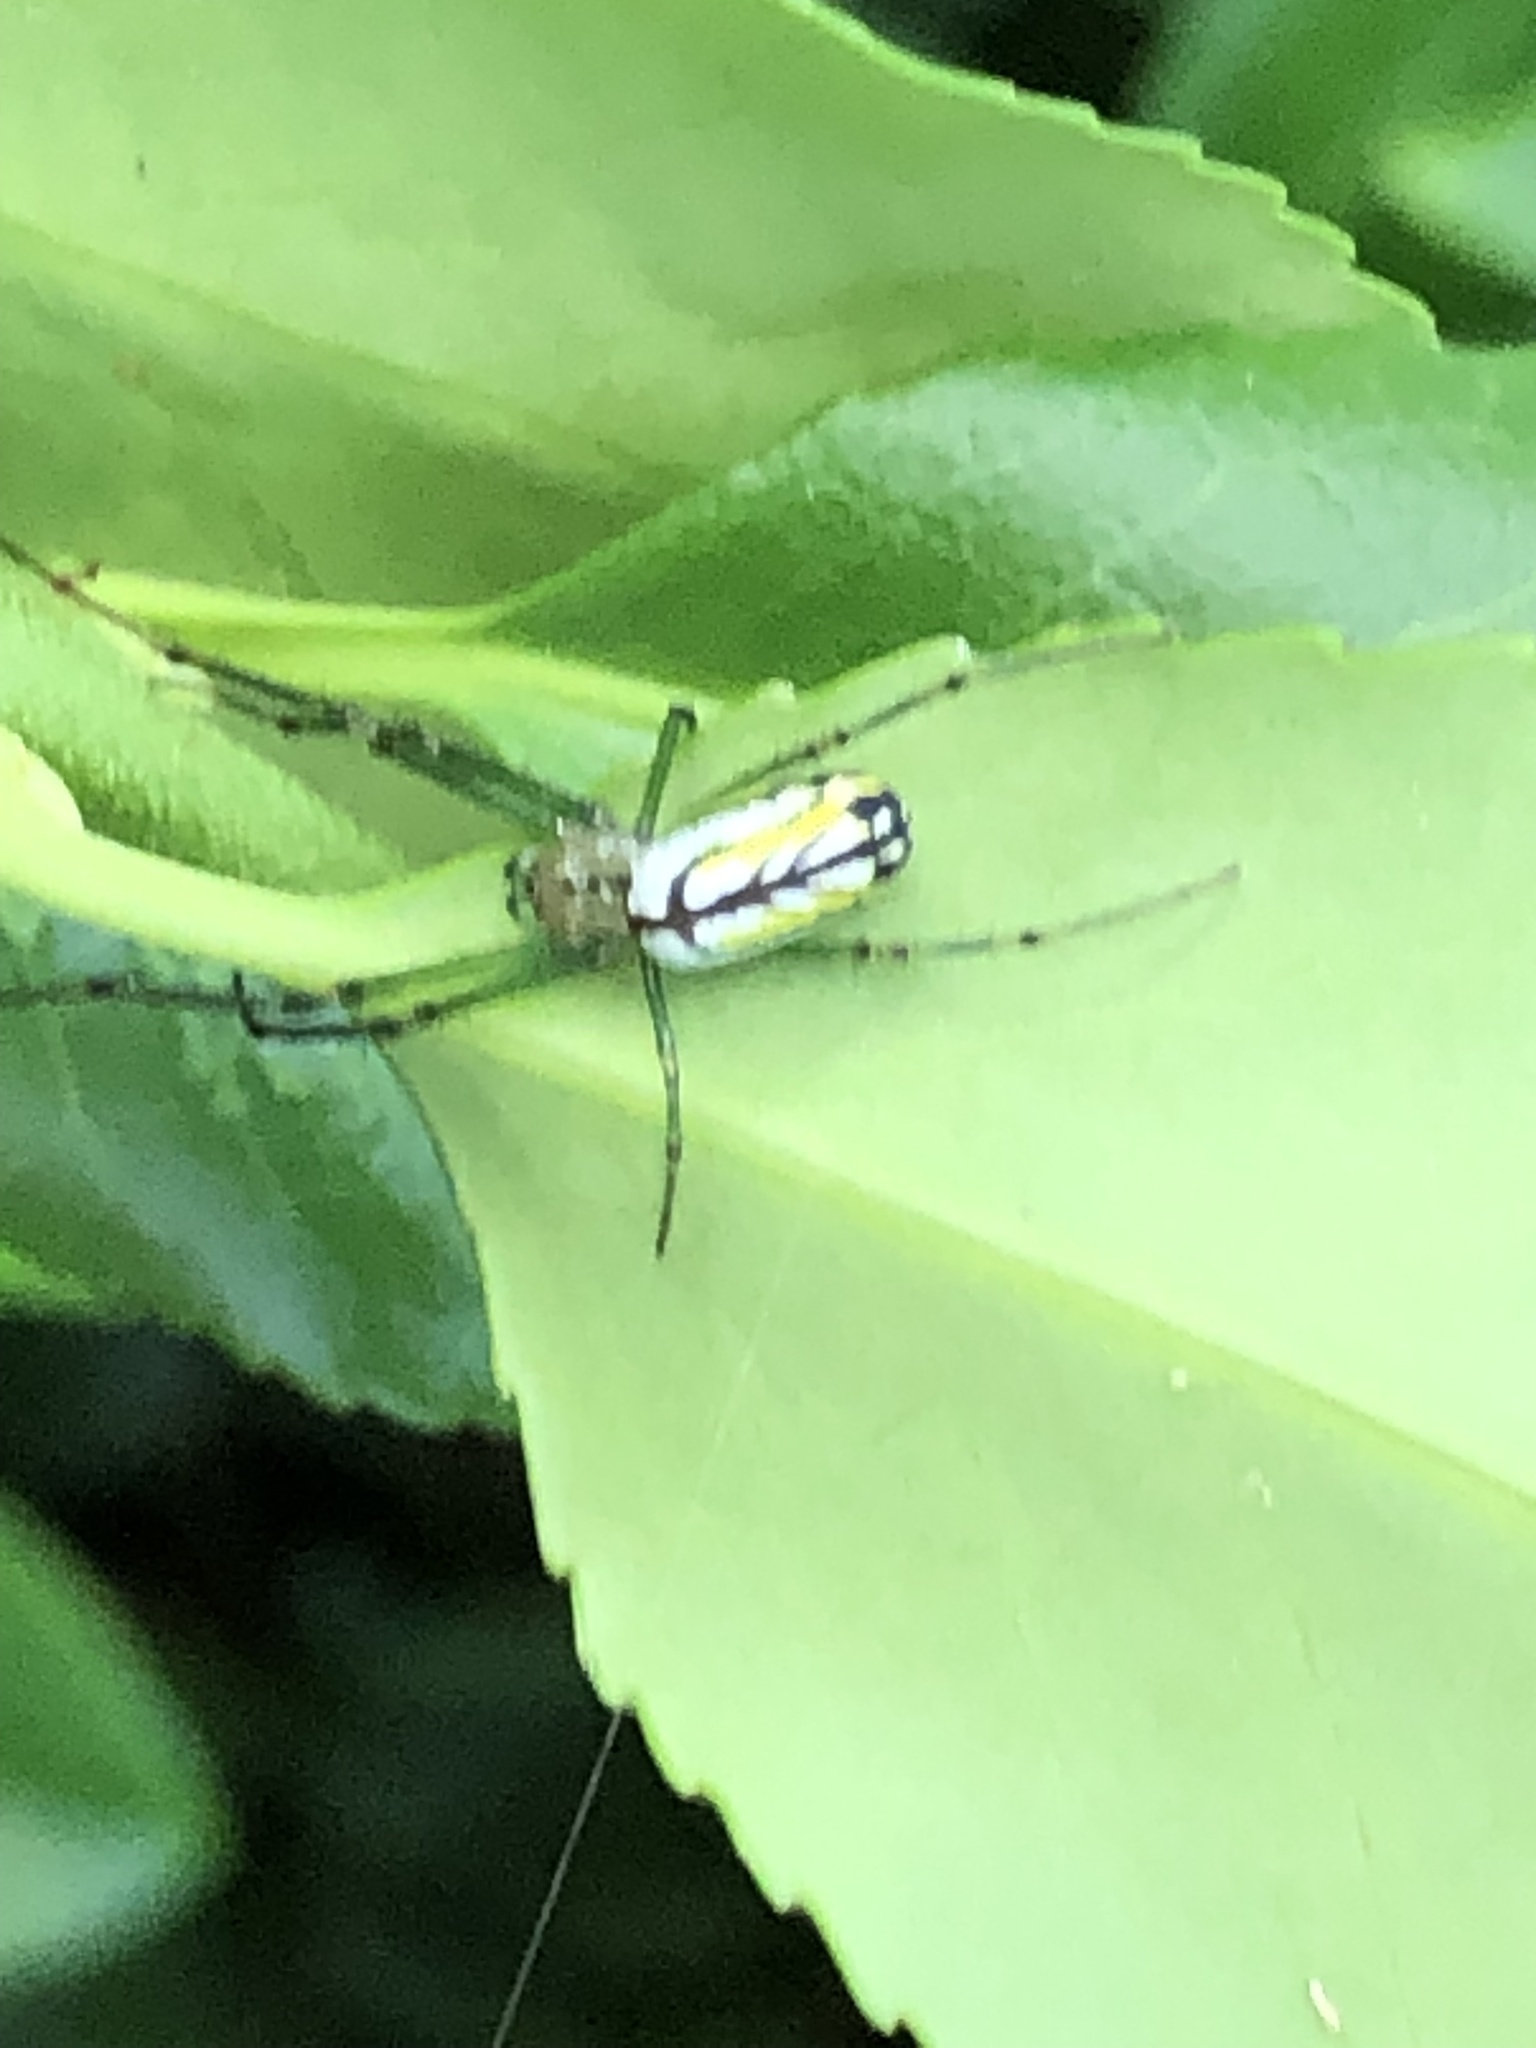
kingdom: Animalia
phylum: Arthropoda
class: Arachnida
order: Araneae
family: Tetragnathidae
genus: Leucauge
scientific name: Leucauge venusta
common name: Longjawed orb weavers
